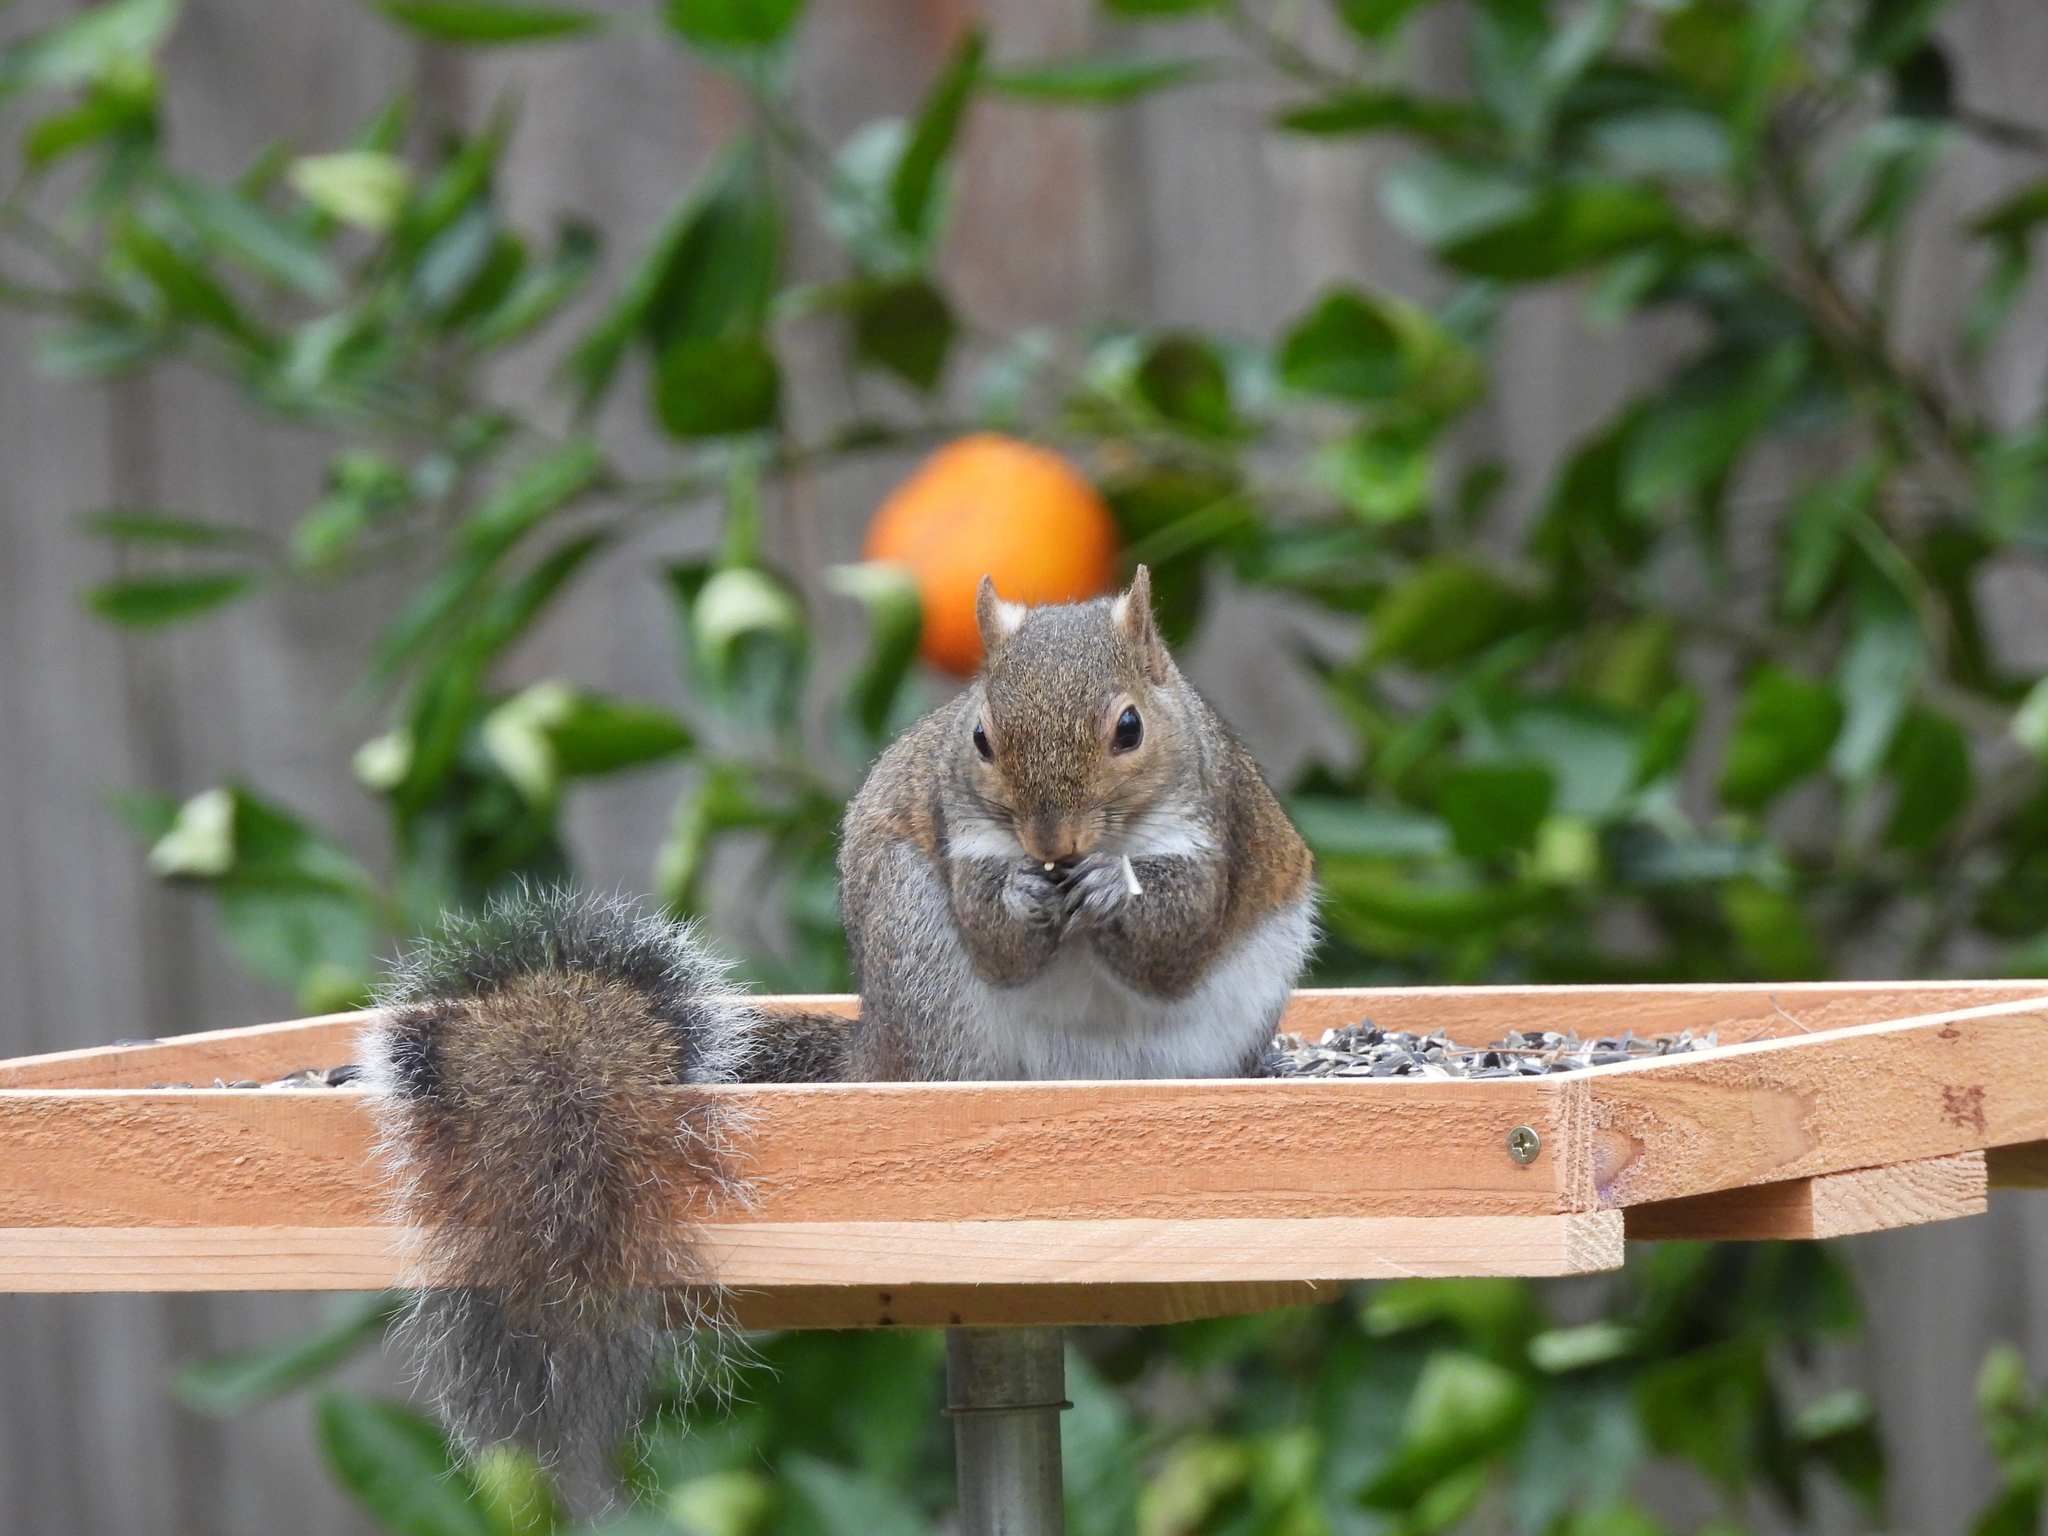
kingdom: Animalia
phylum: Chordata
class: Mammalia
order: Rodentia
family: Sciuridae
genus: Sciurus
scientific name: Sciurus carolinensis
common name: Eastern gray squirrel
